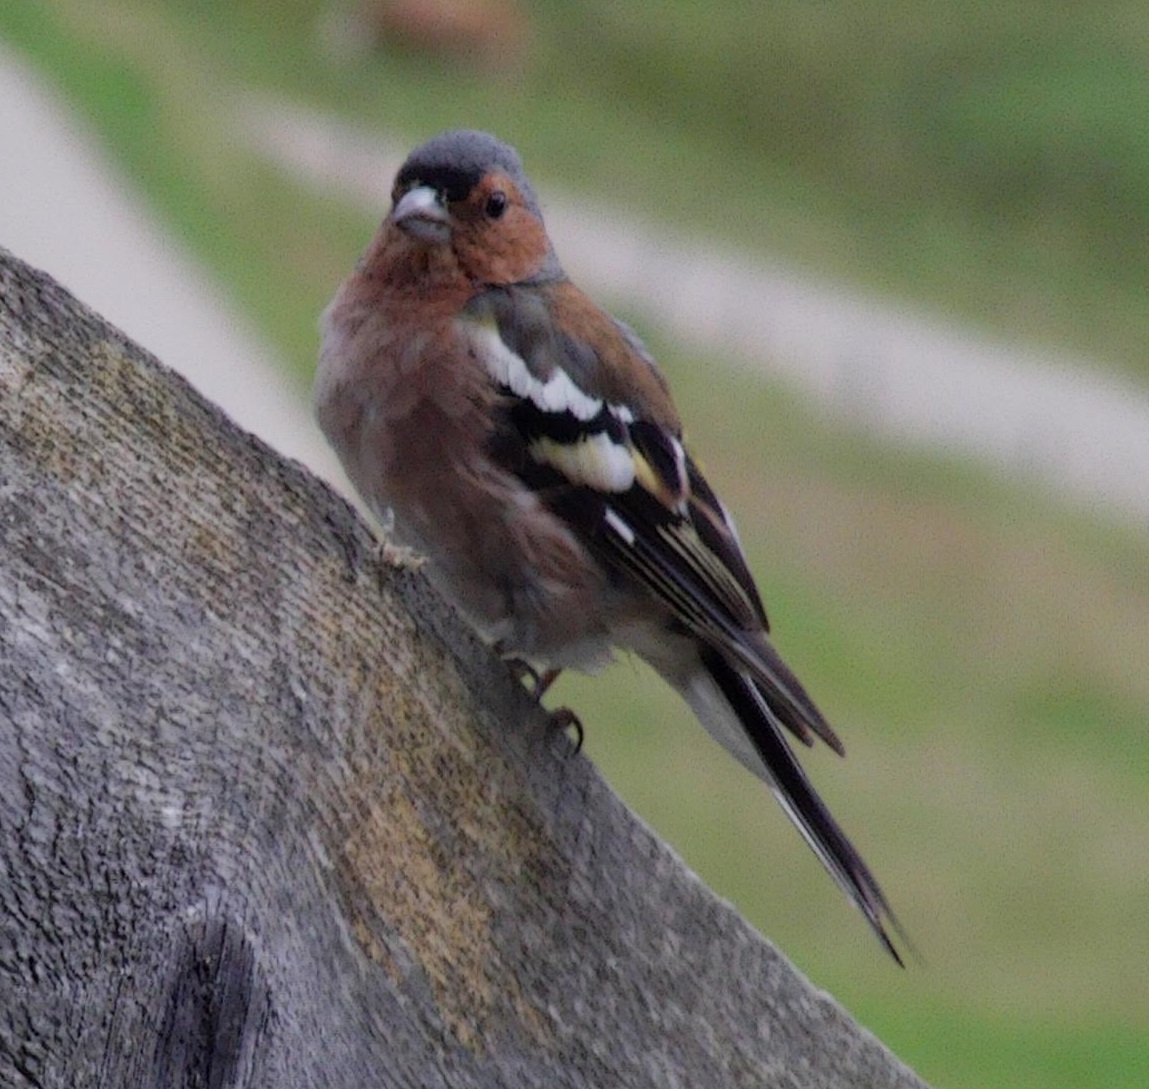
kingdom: Animalia
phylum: Chordata
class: Aves
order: Passeriformes
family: Fringillidae
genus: Fringilla
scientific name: Fringilla coelebs
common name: Common chaffinch
